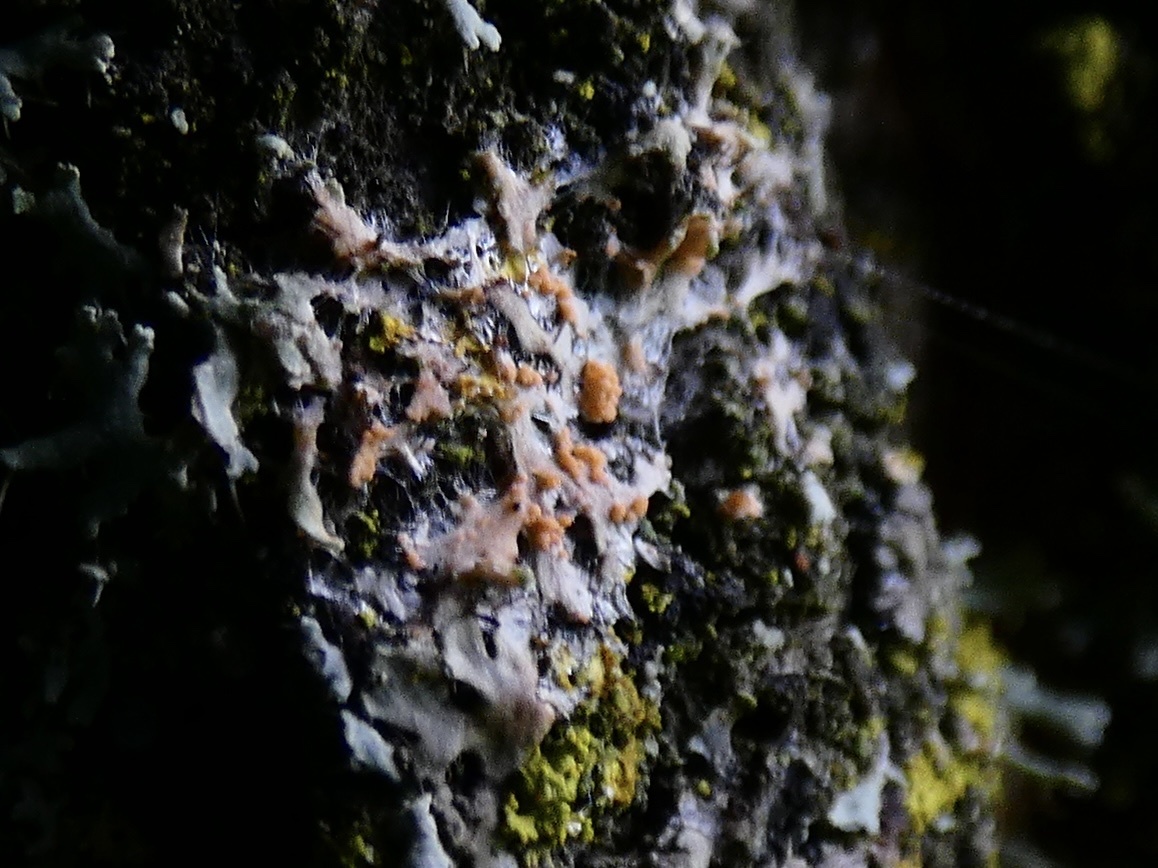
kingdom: Fungi
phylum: Basidiomycota
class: Agaricomycetes
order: Corticiales
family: Corticiaceae
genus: Erythricium
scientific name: Erythricium aurantiacum
